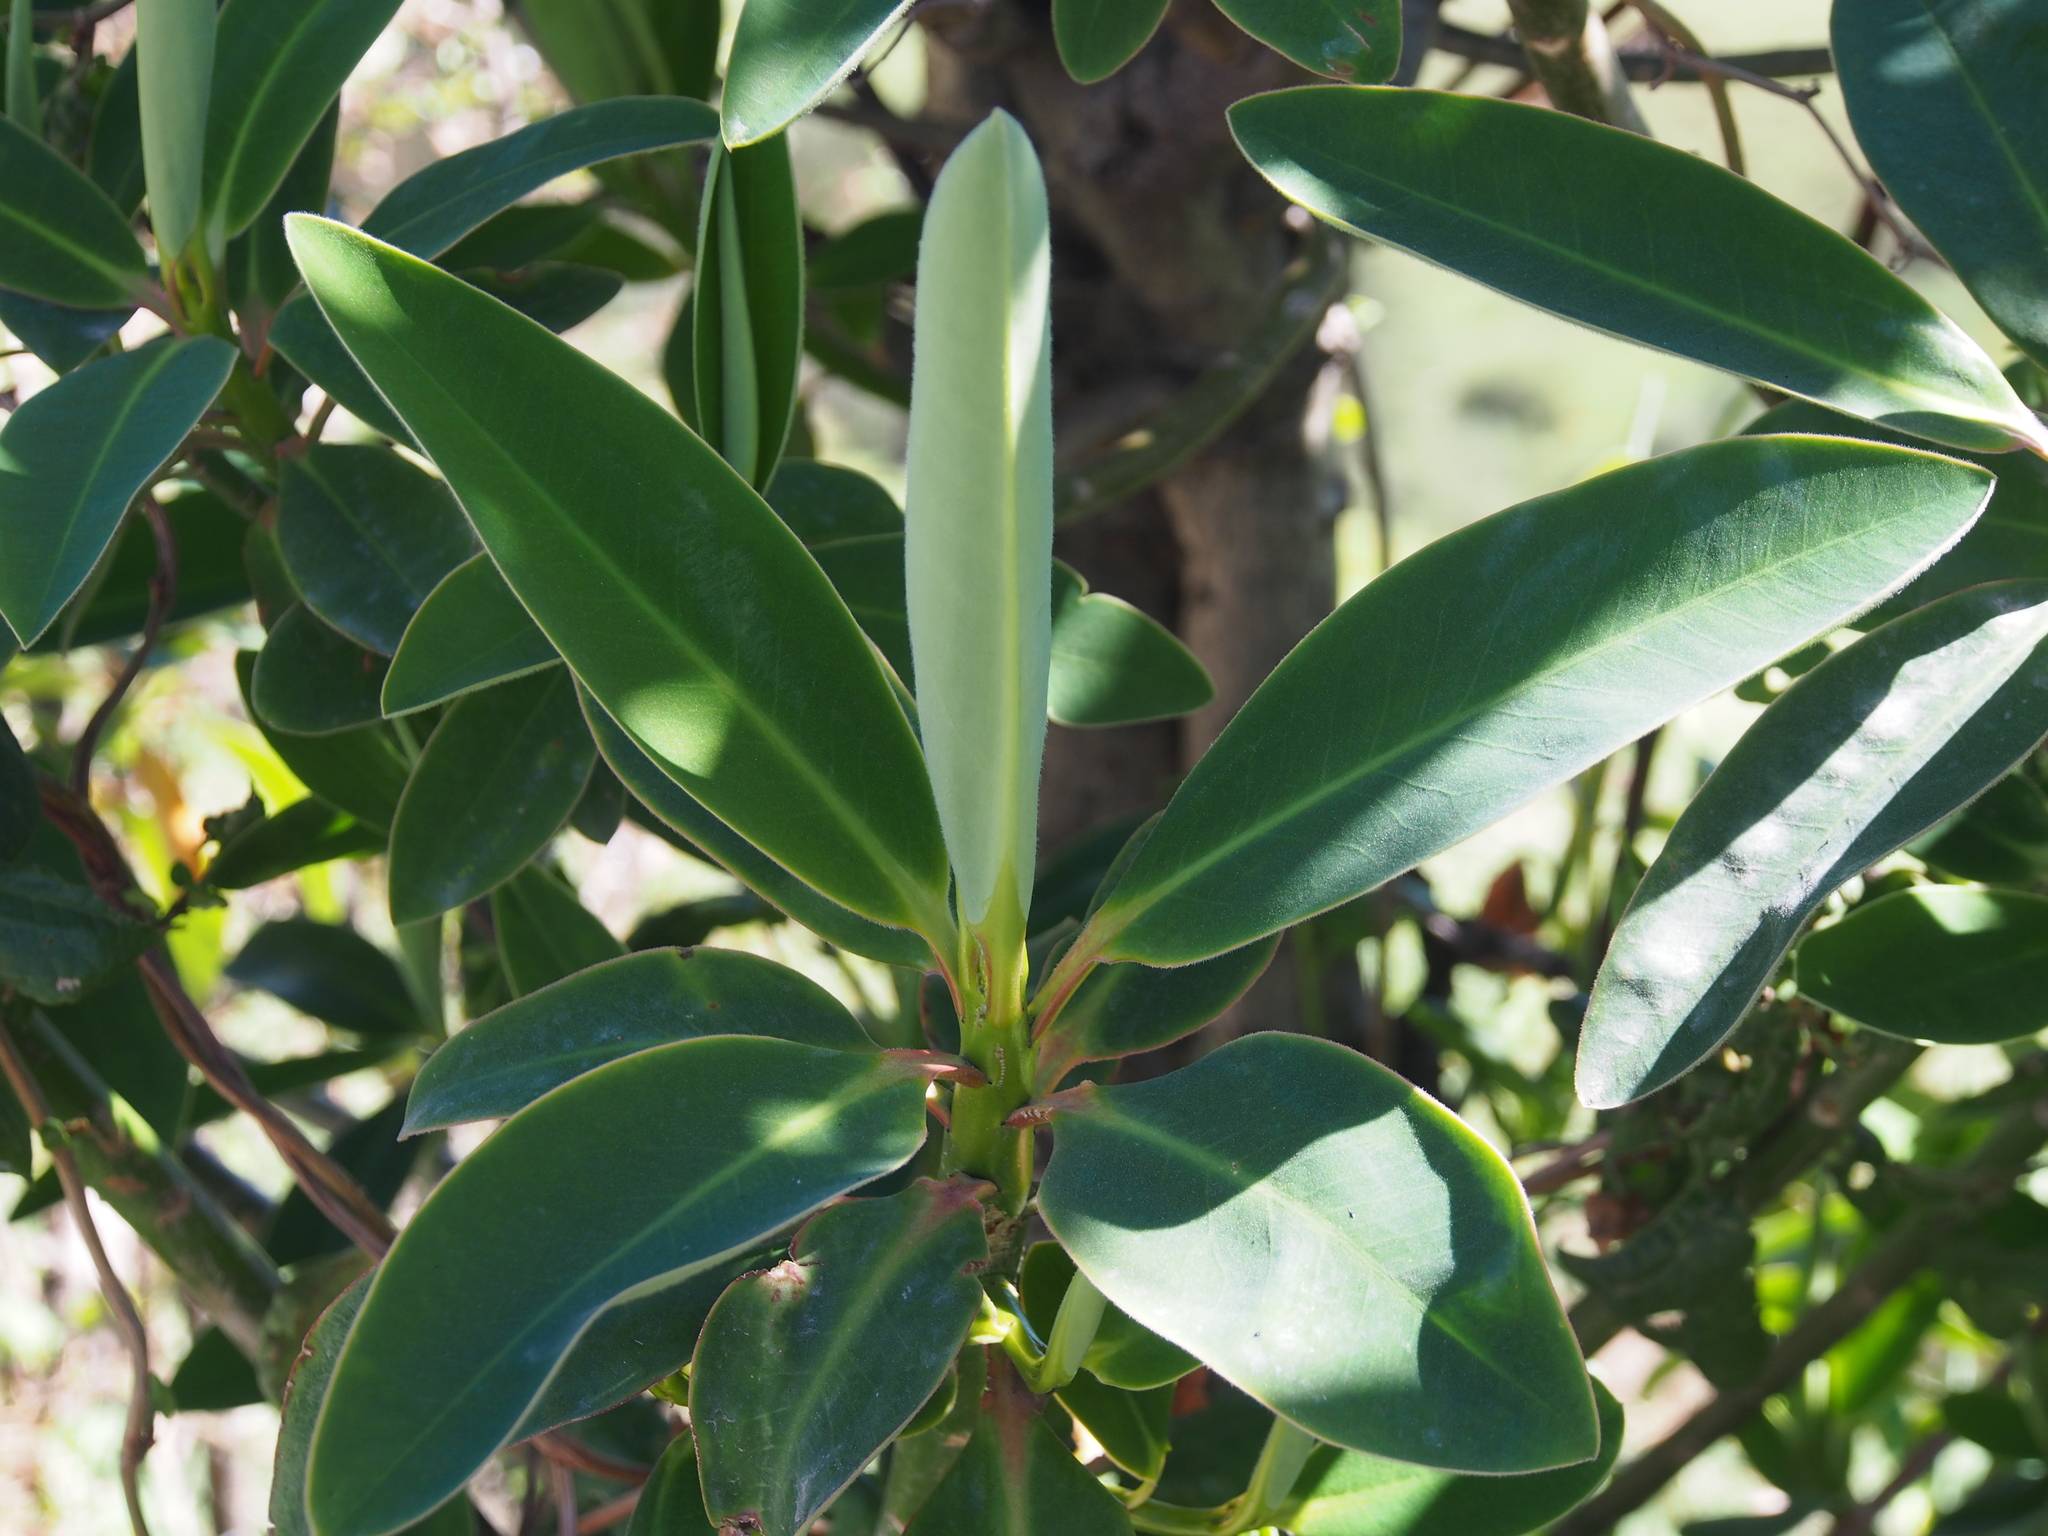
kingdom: Plantae
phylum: Tracheophyta
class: Magnoliopsida
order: Malpighiales
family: Euphorbiaceae
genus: Euphorbia
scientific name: Euphorbia laurifolia
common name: Lechero
